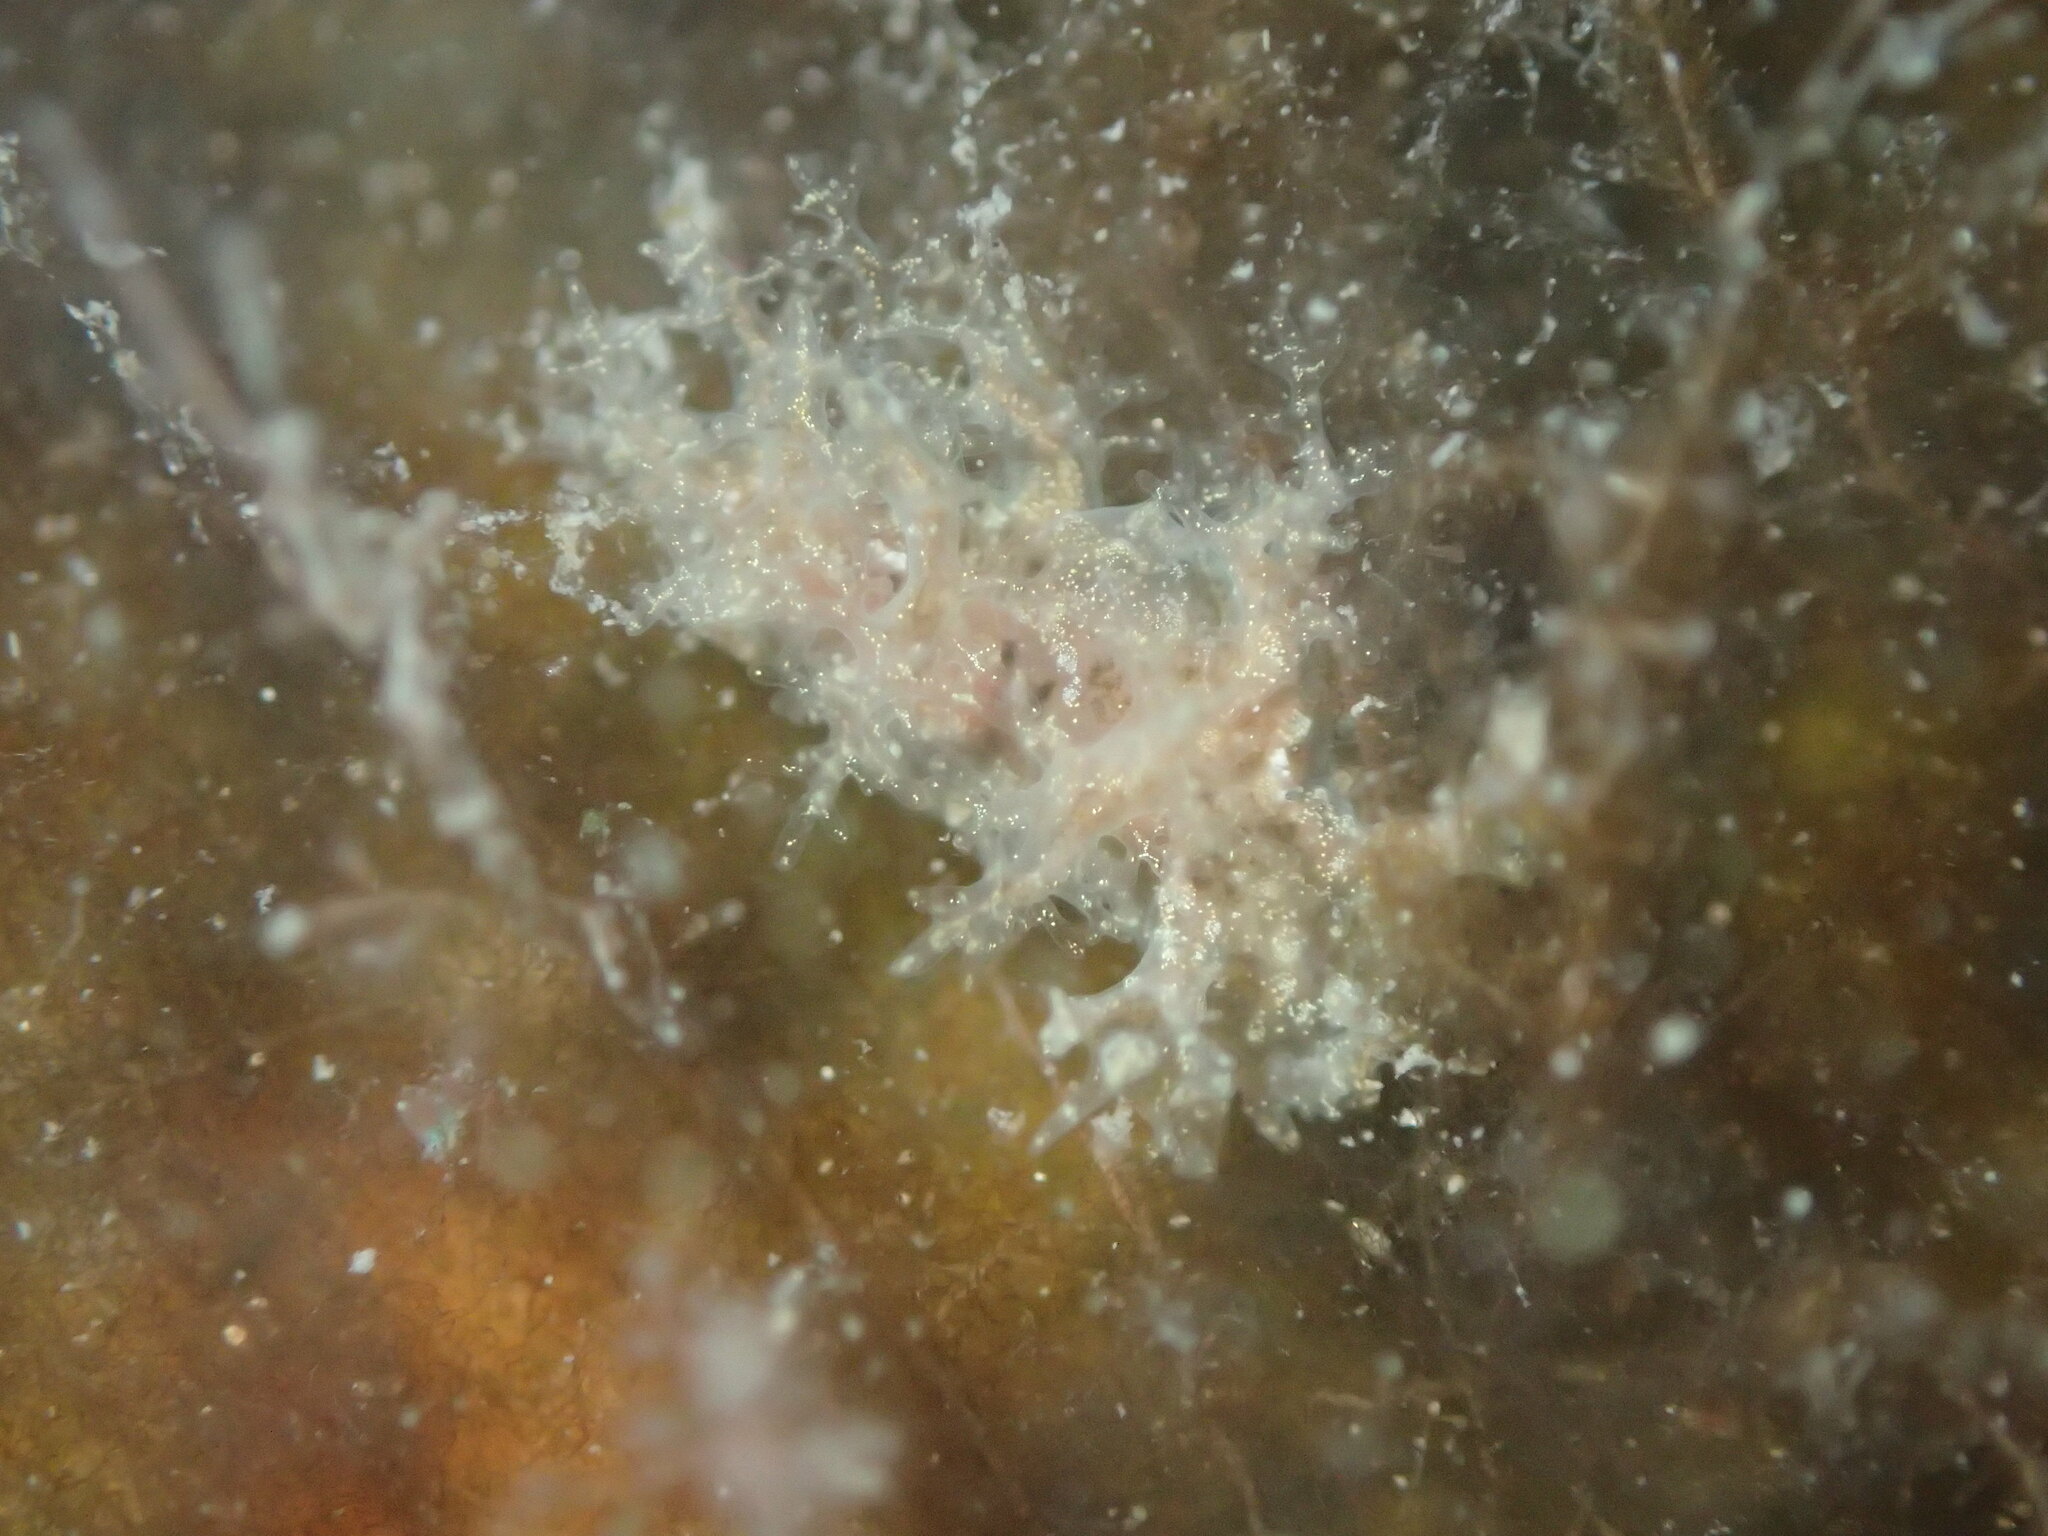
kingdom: Animalia
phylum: Mollusca
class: Gastropoda
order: Nudibranchia
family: Dendronotidae
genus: Dendronotus
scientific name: Dendronotus venustus
